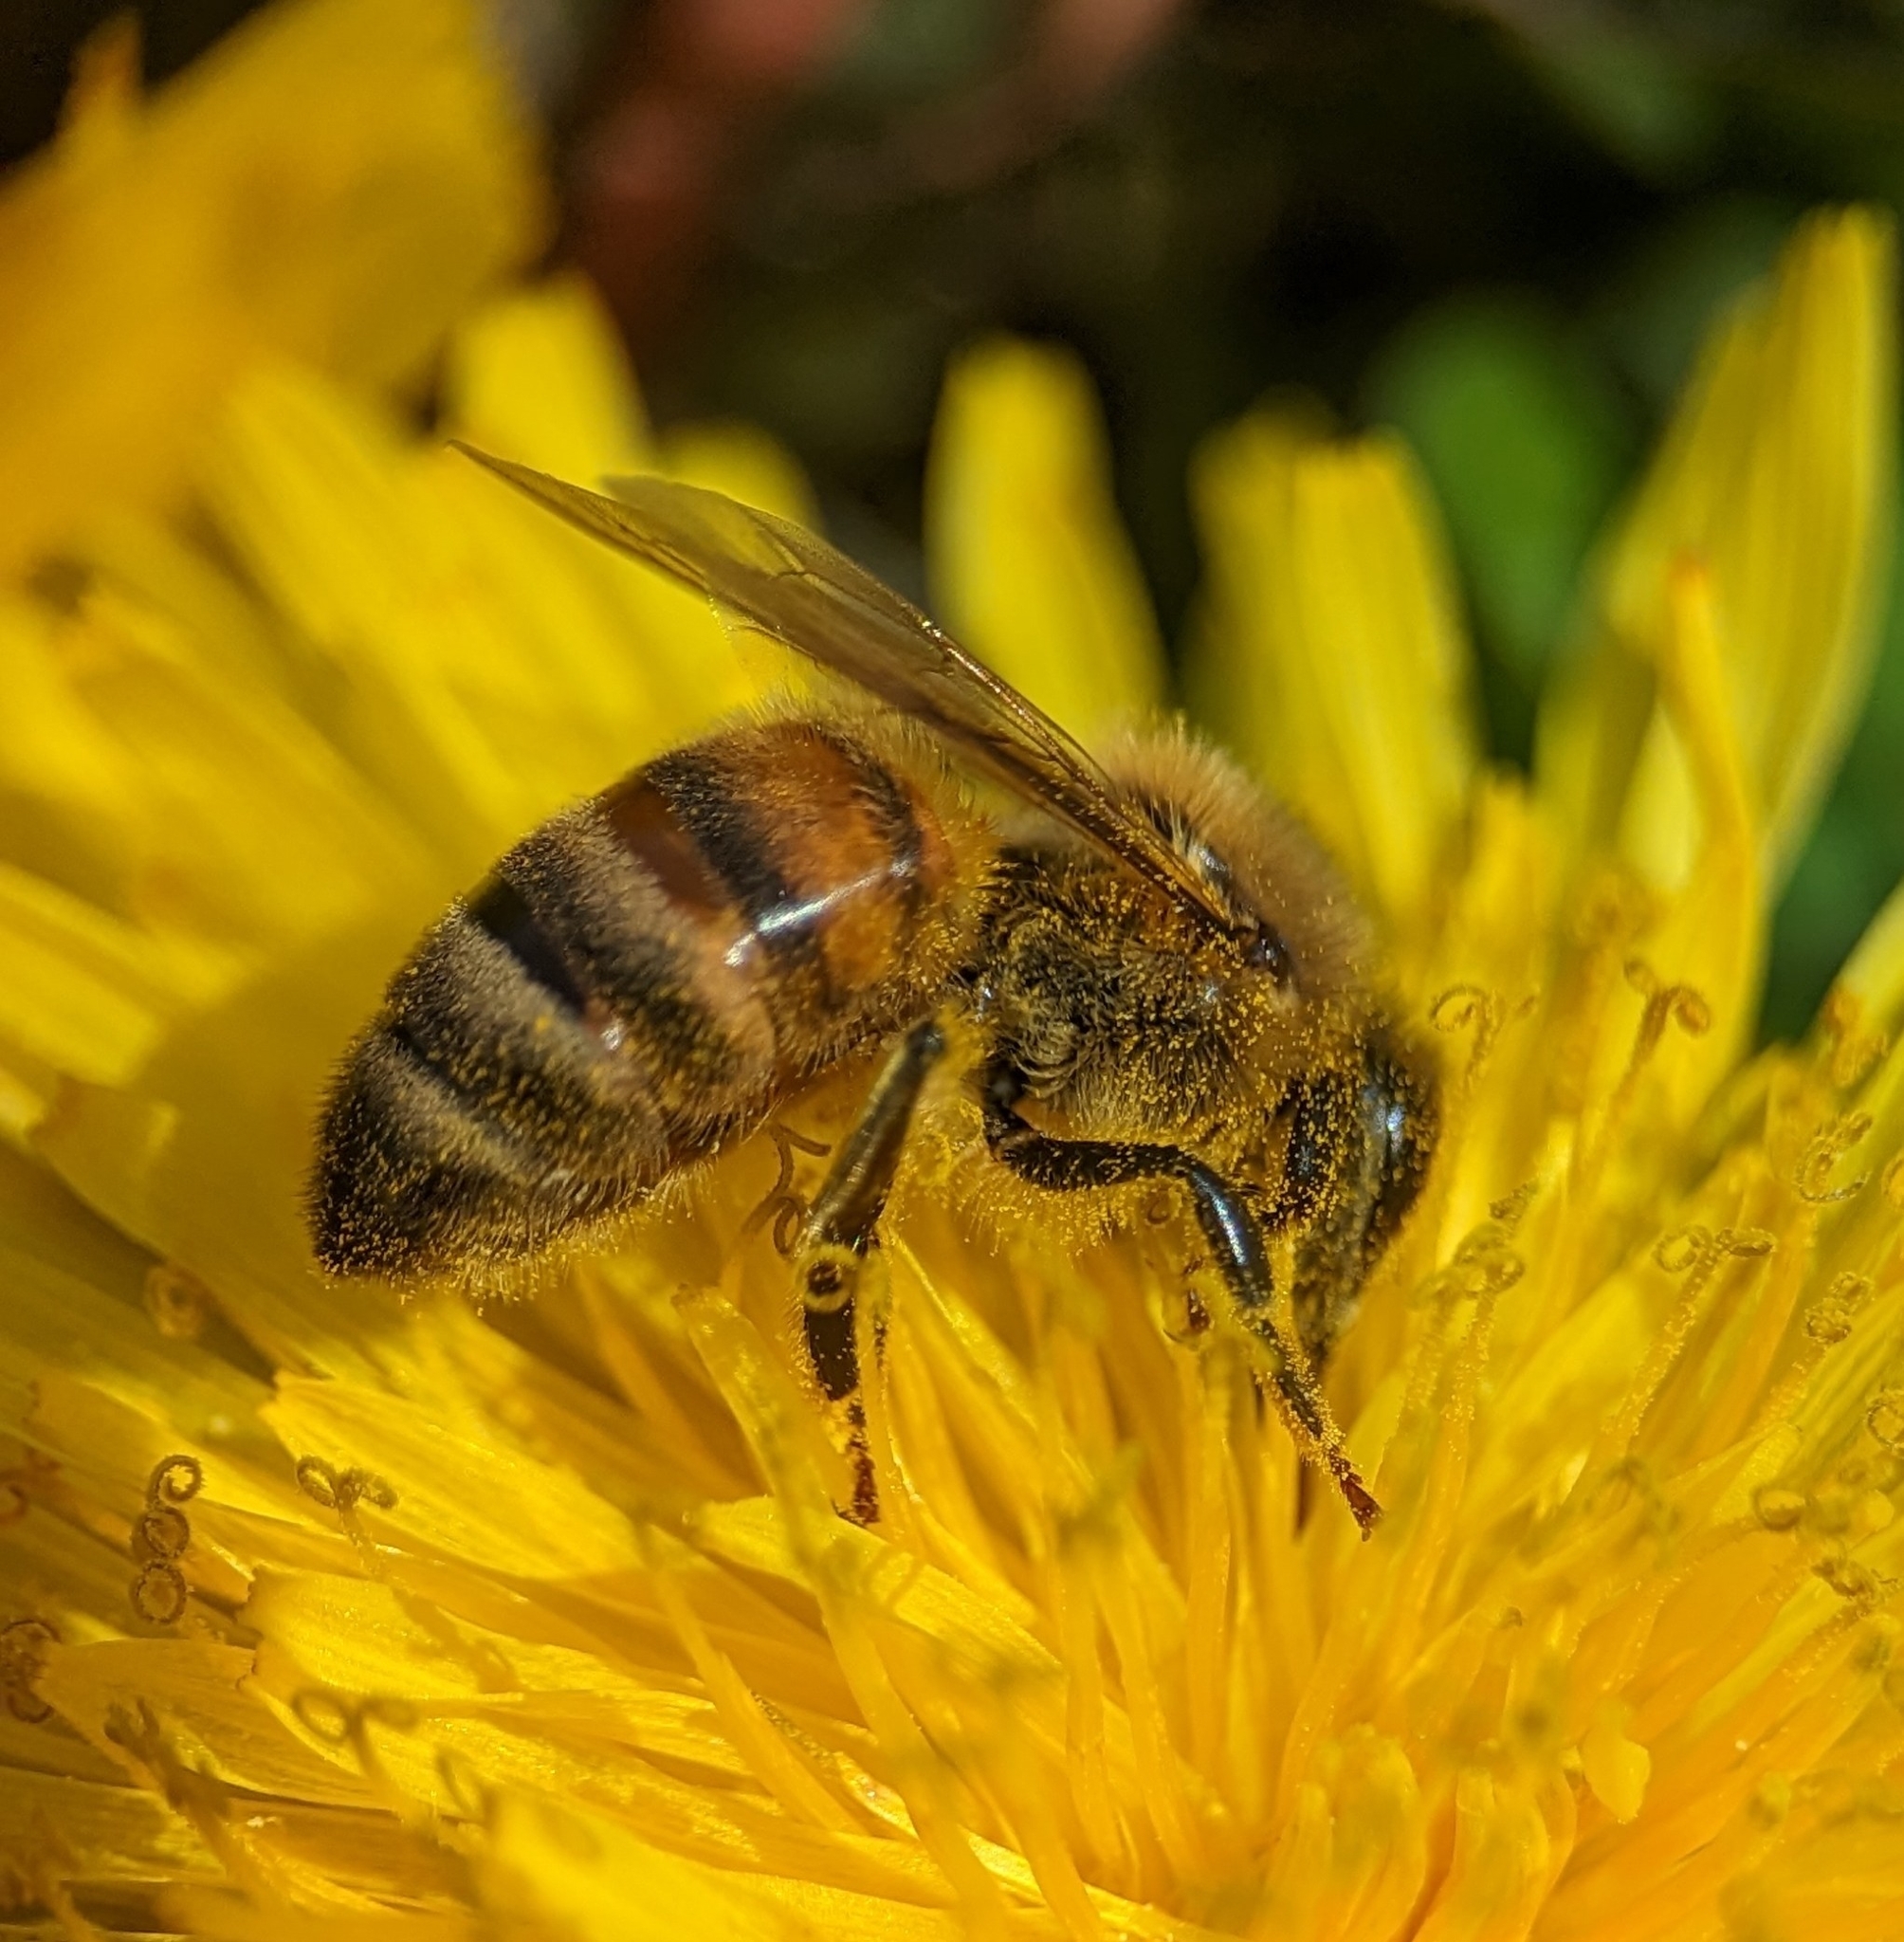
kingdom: Animalia
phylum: Arthropoda
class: Insecta
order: Hymenoptera
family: Apidae
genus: Apis
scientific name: Apis mellifera
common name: Honey bee
